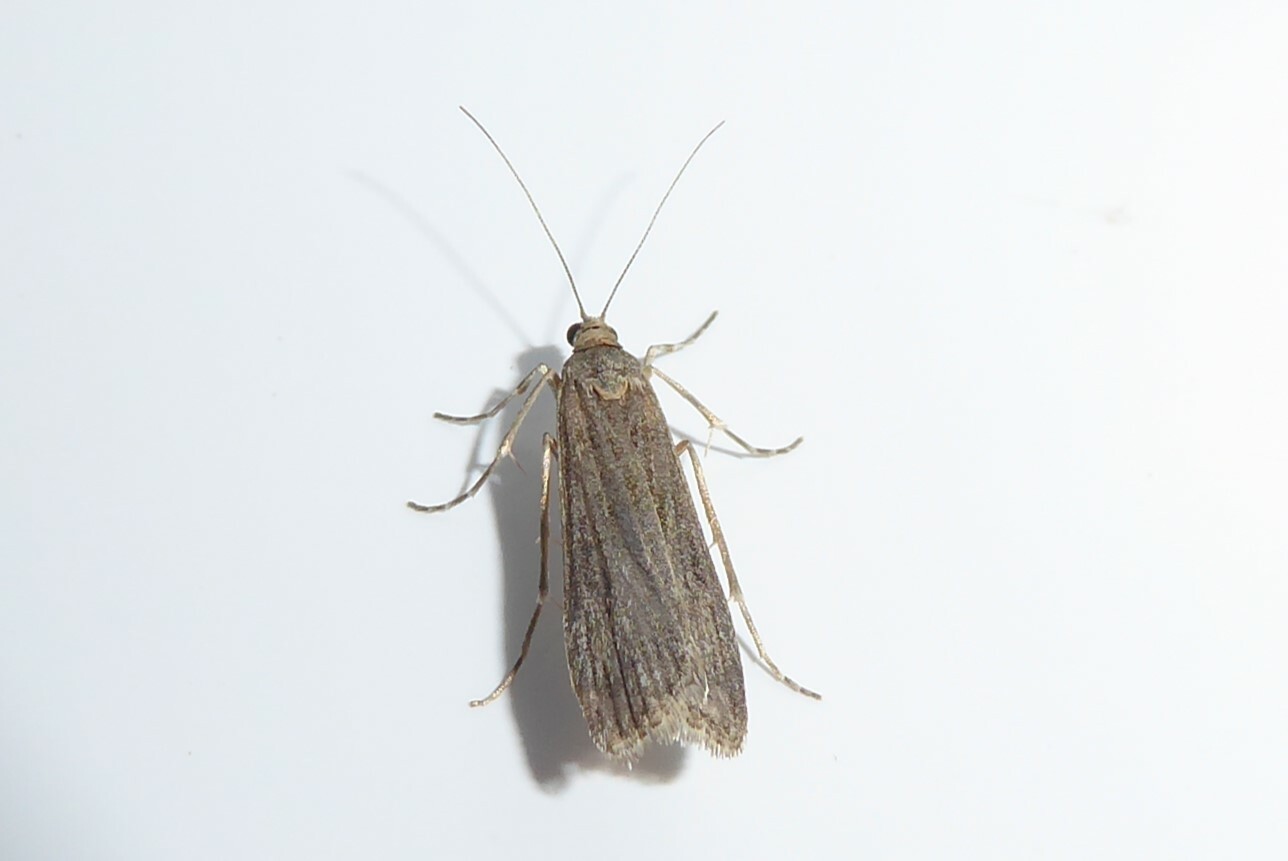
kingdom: Animalia
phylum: Arthropoda
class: Insecta
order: Lepidoptera
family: Crambidae
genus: Eudonia
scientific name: Eudonia atmogramma
